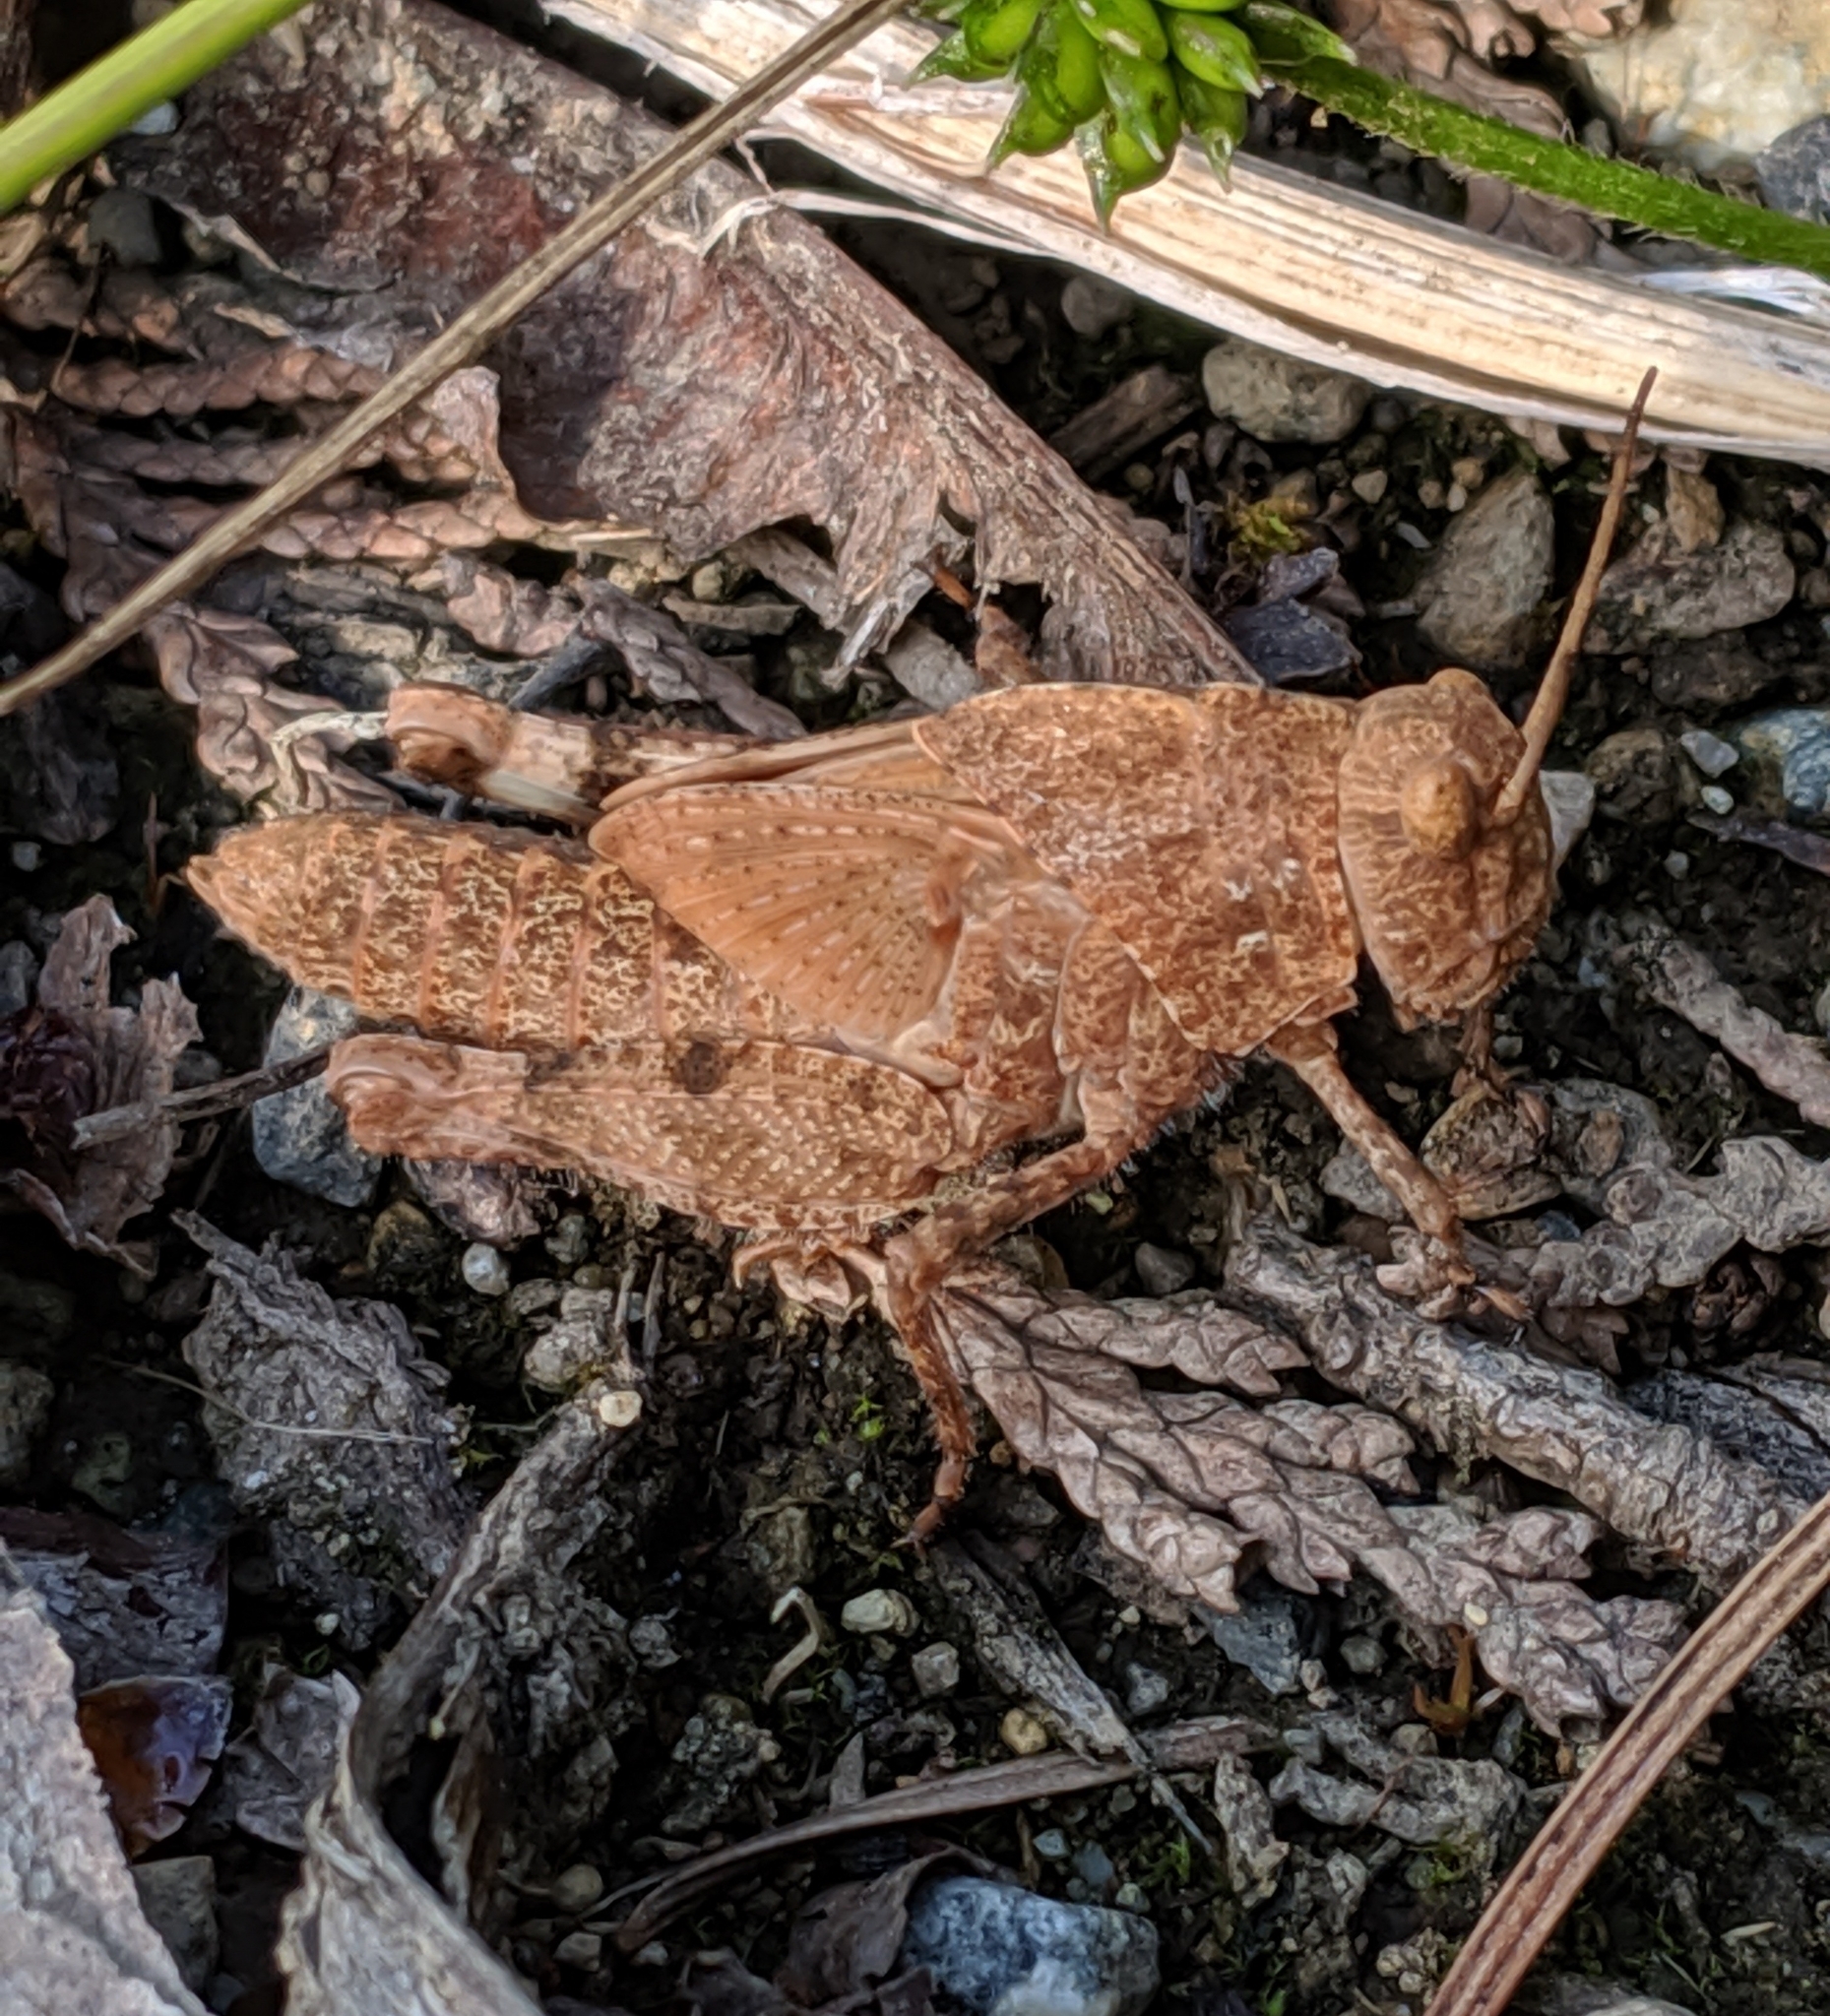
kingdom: Animalia
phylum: Arthropoda
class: Insecta
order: Orthoptera
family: Acrididae
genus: Dissosteira
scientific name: Dissosteira carolina
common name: Carolina grasshopper
